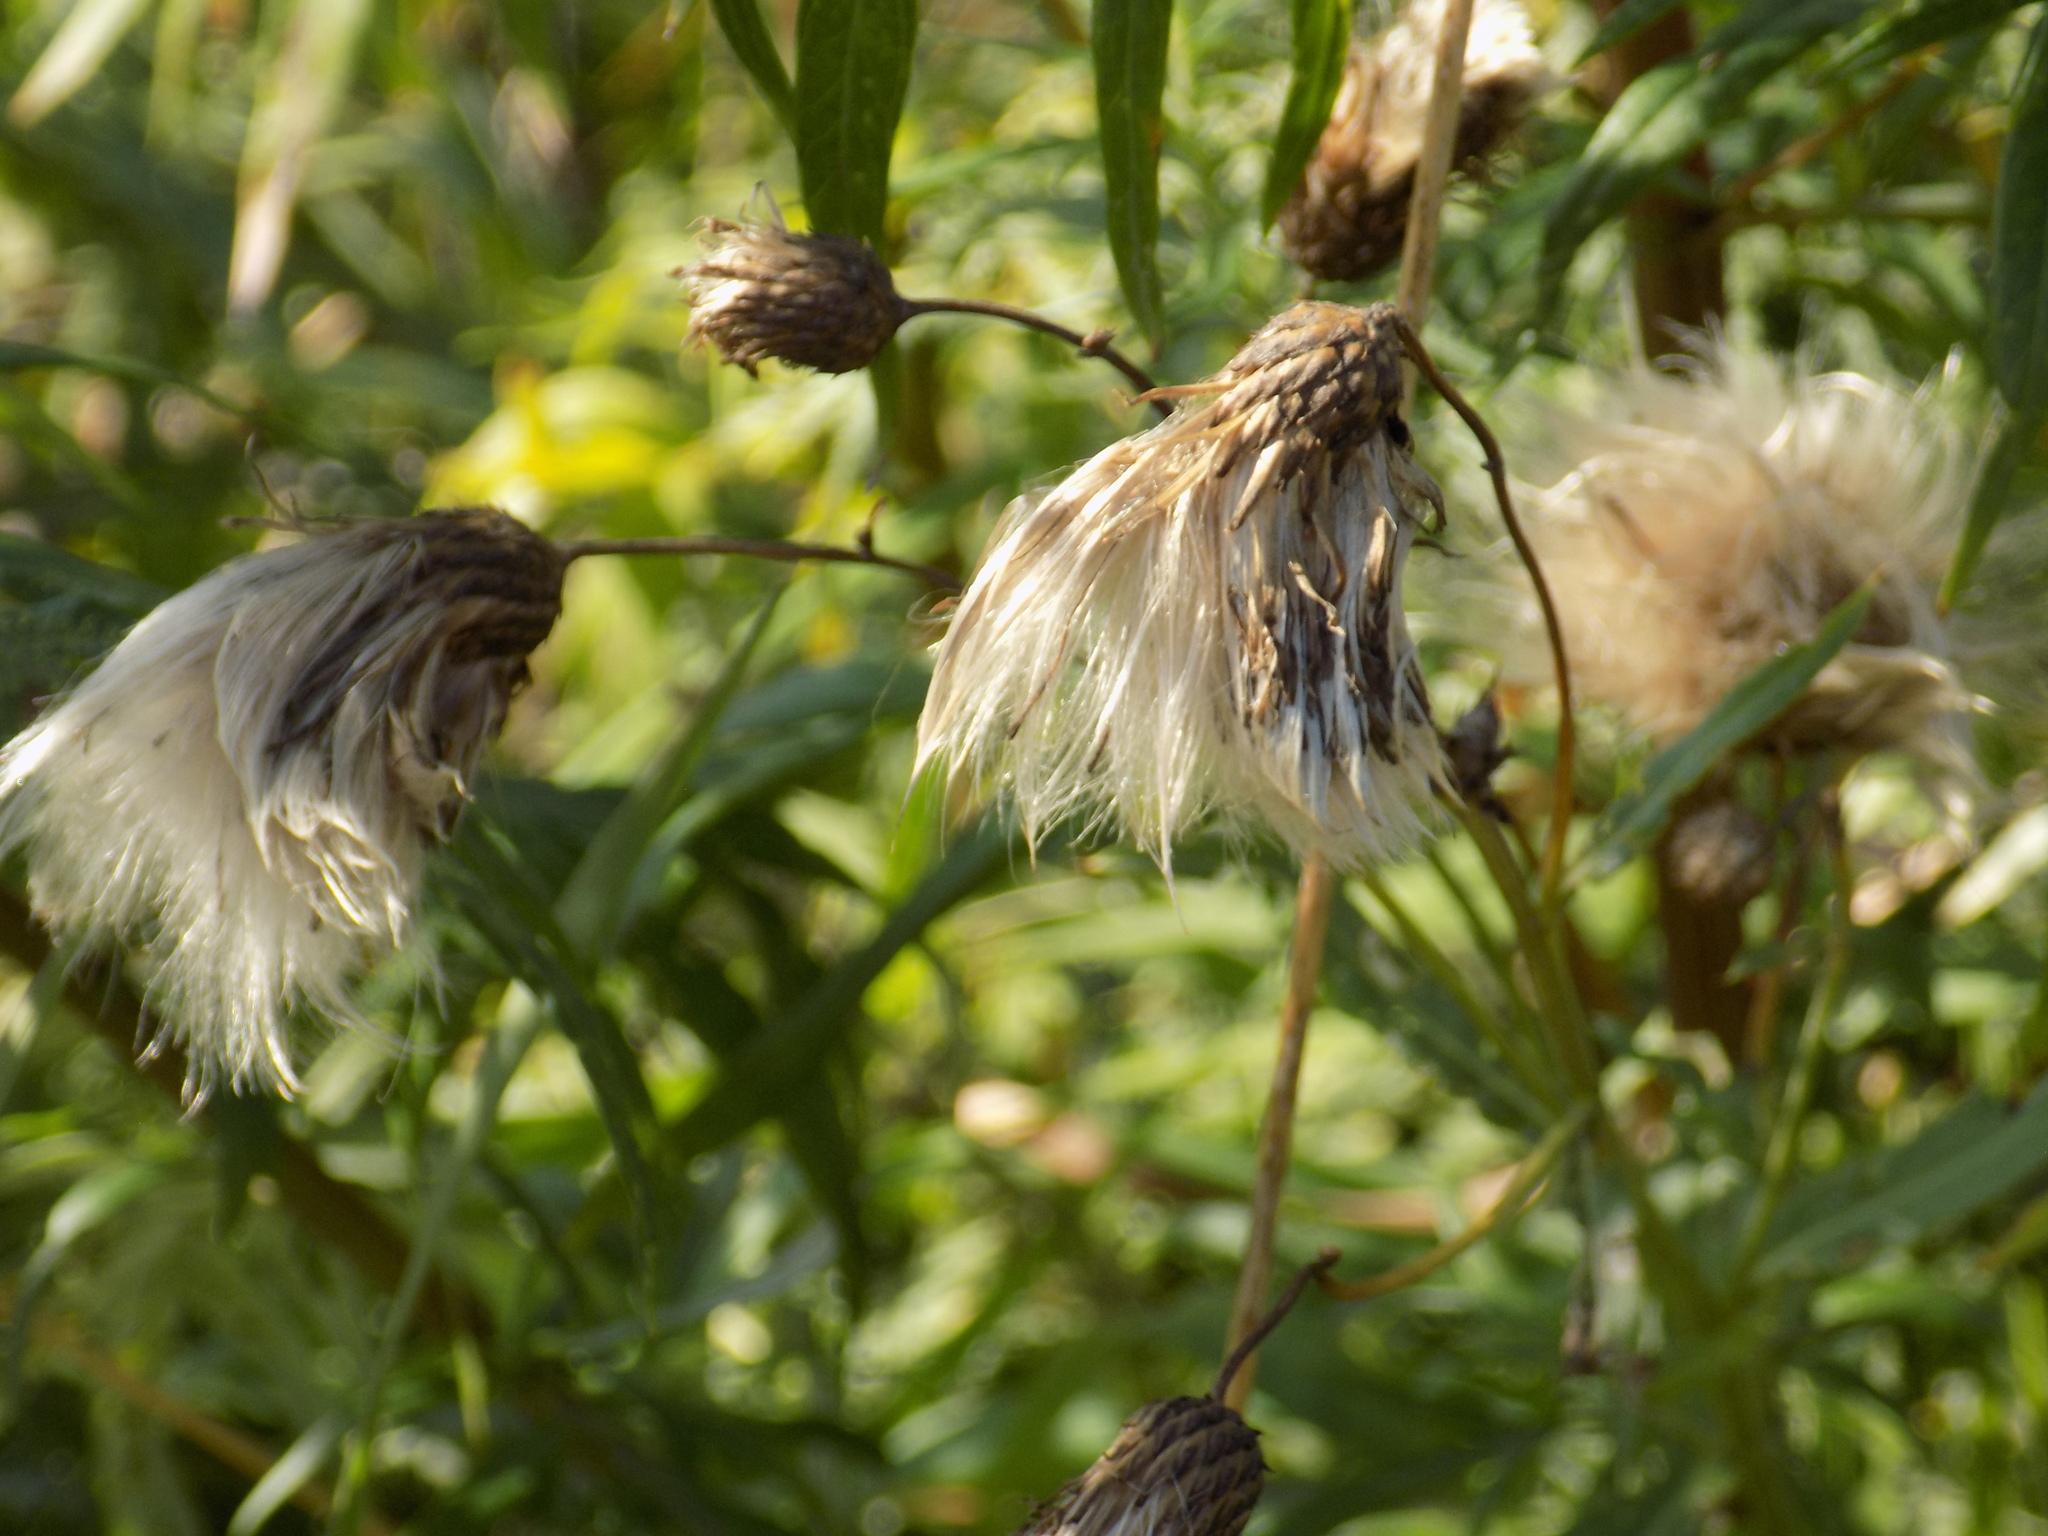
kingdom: Plantae
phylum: Tracheophyta
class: Magnoliopsida
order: Asterales
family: Asteraceae
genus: Cirsium
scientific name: Cirsium arvense
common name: Creeping thistle
